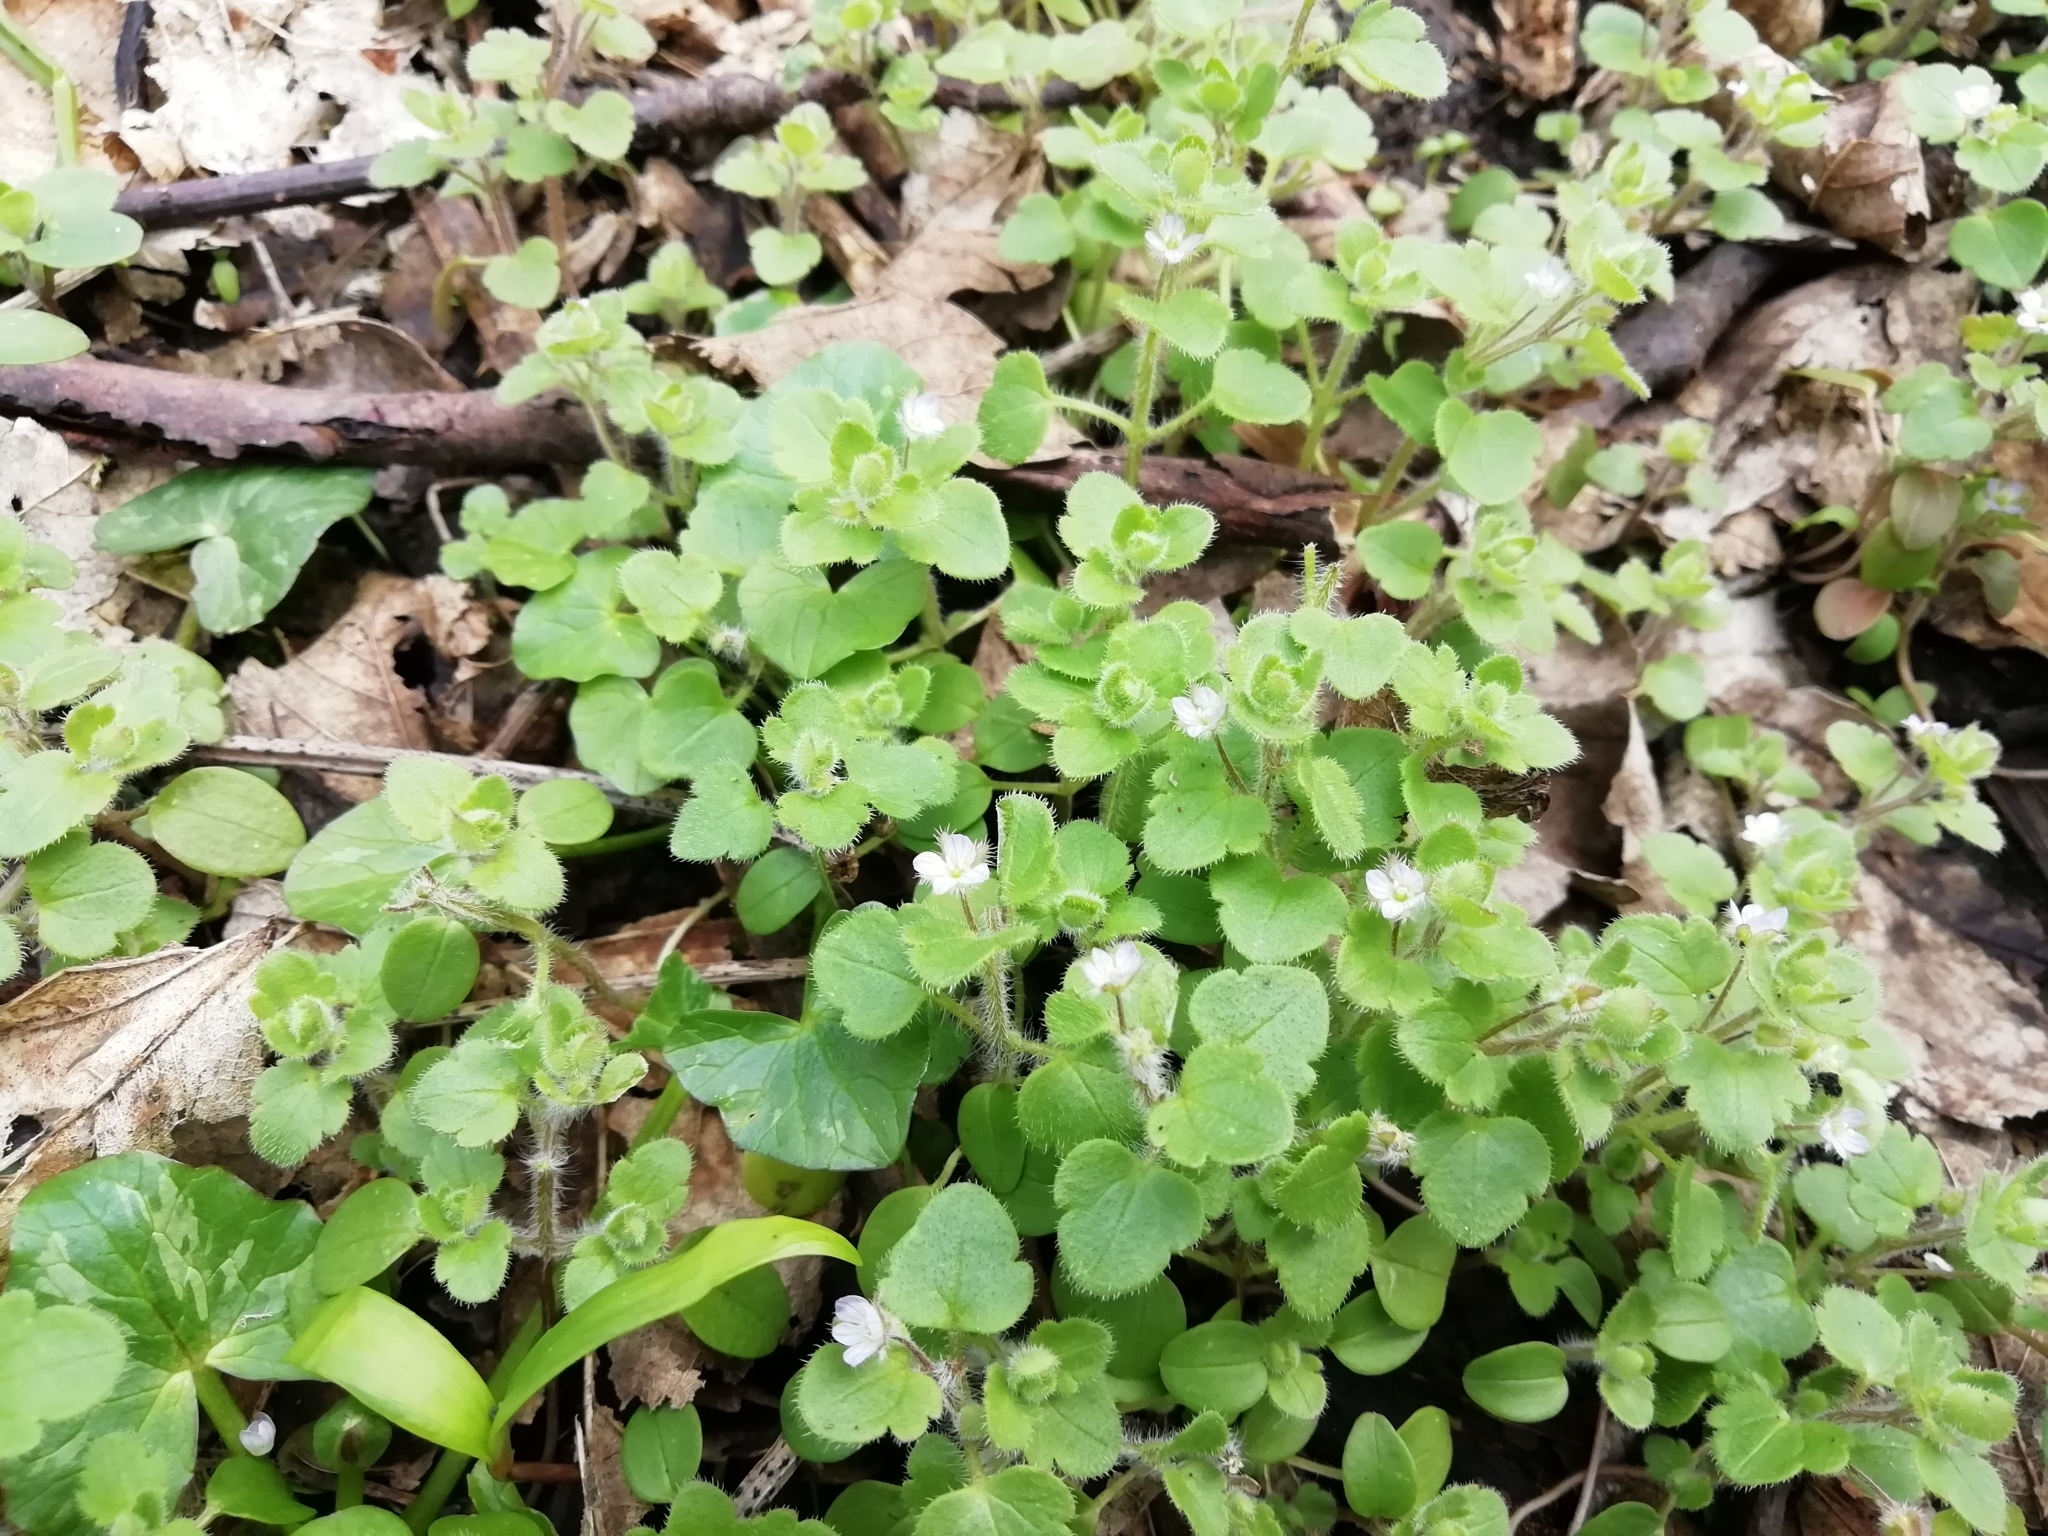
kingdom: Plantae
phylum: Tracheophyta
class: Magnoliopsida
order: Lamiales
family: Plantaginaceae
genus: Veronica
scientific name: Veronica sublobata
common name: False ivy-leaved speedwell
